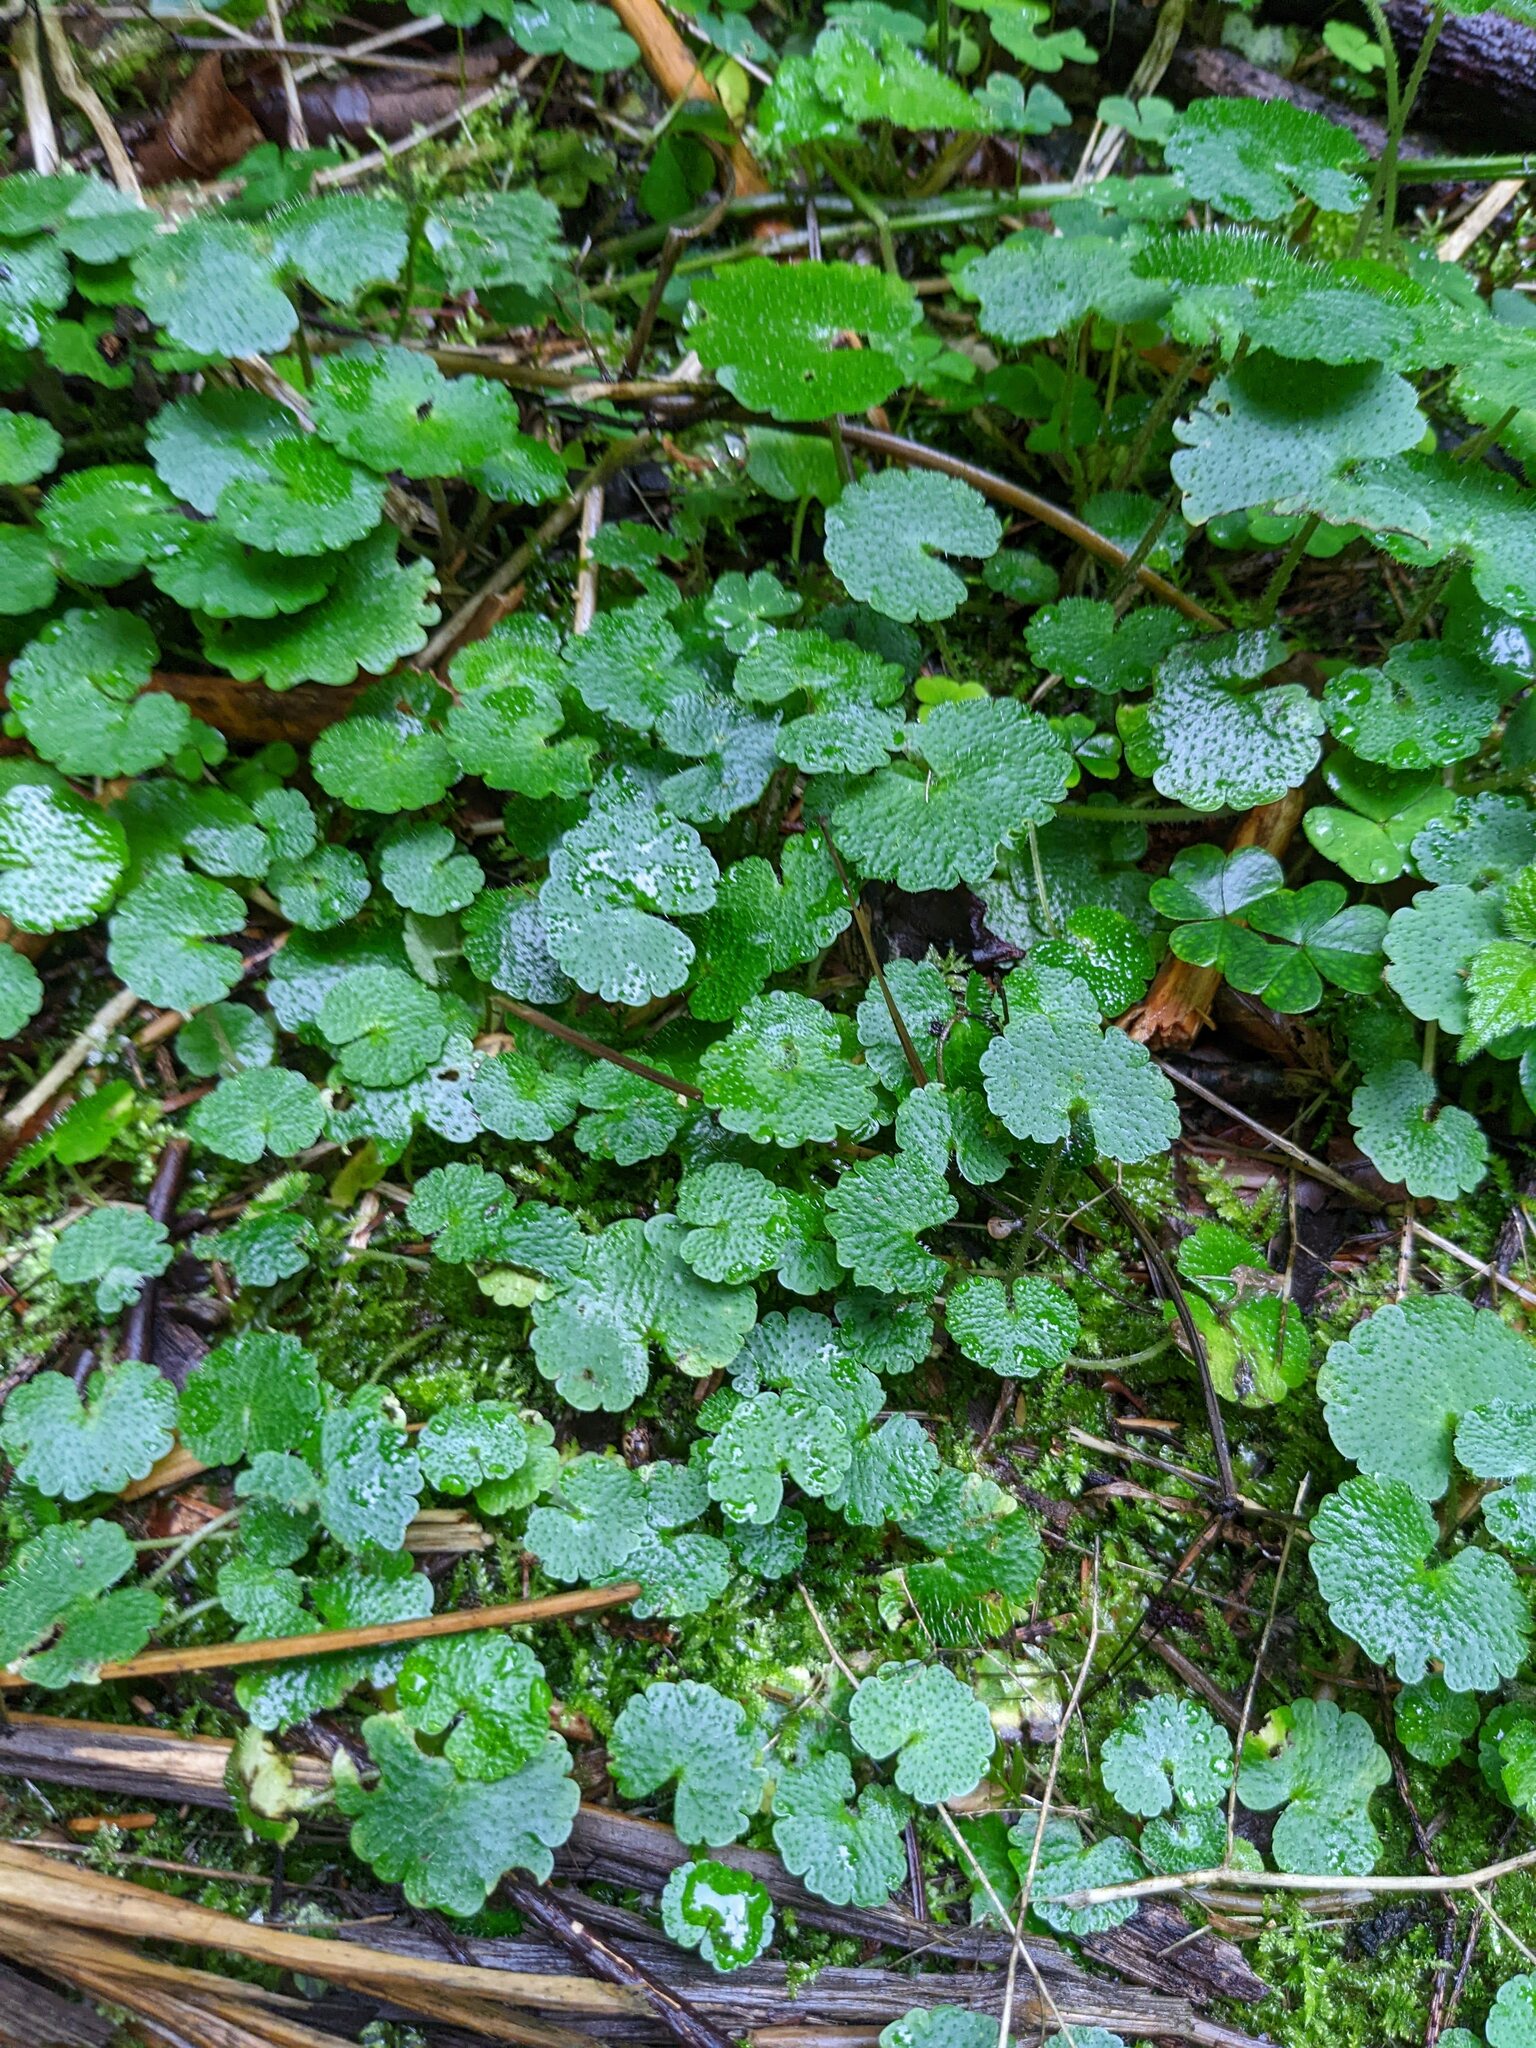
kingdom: Plantae
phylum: Tracheophyta
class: Magnoliopsida
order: Saxifragales
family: Saxifragaceae
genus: Chrysosplenium
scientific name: Chrysosplenium alternifolium
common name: Alternate-leaved golden-saxifrage
